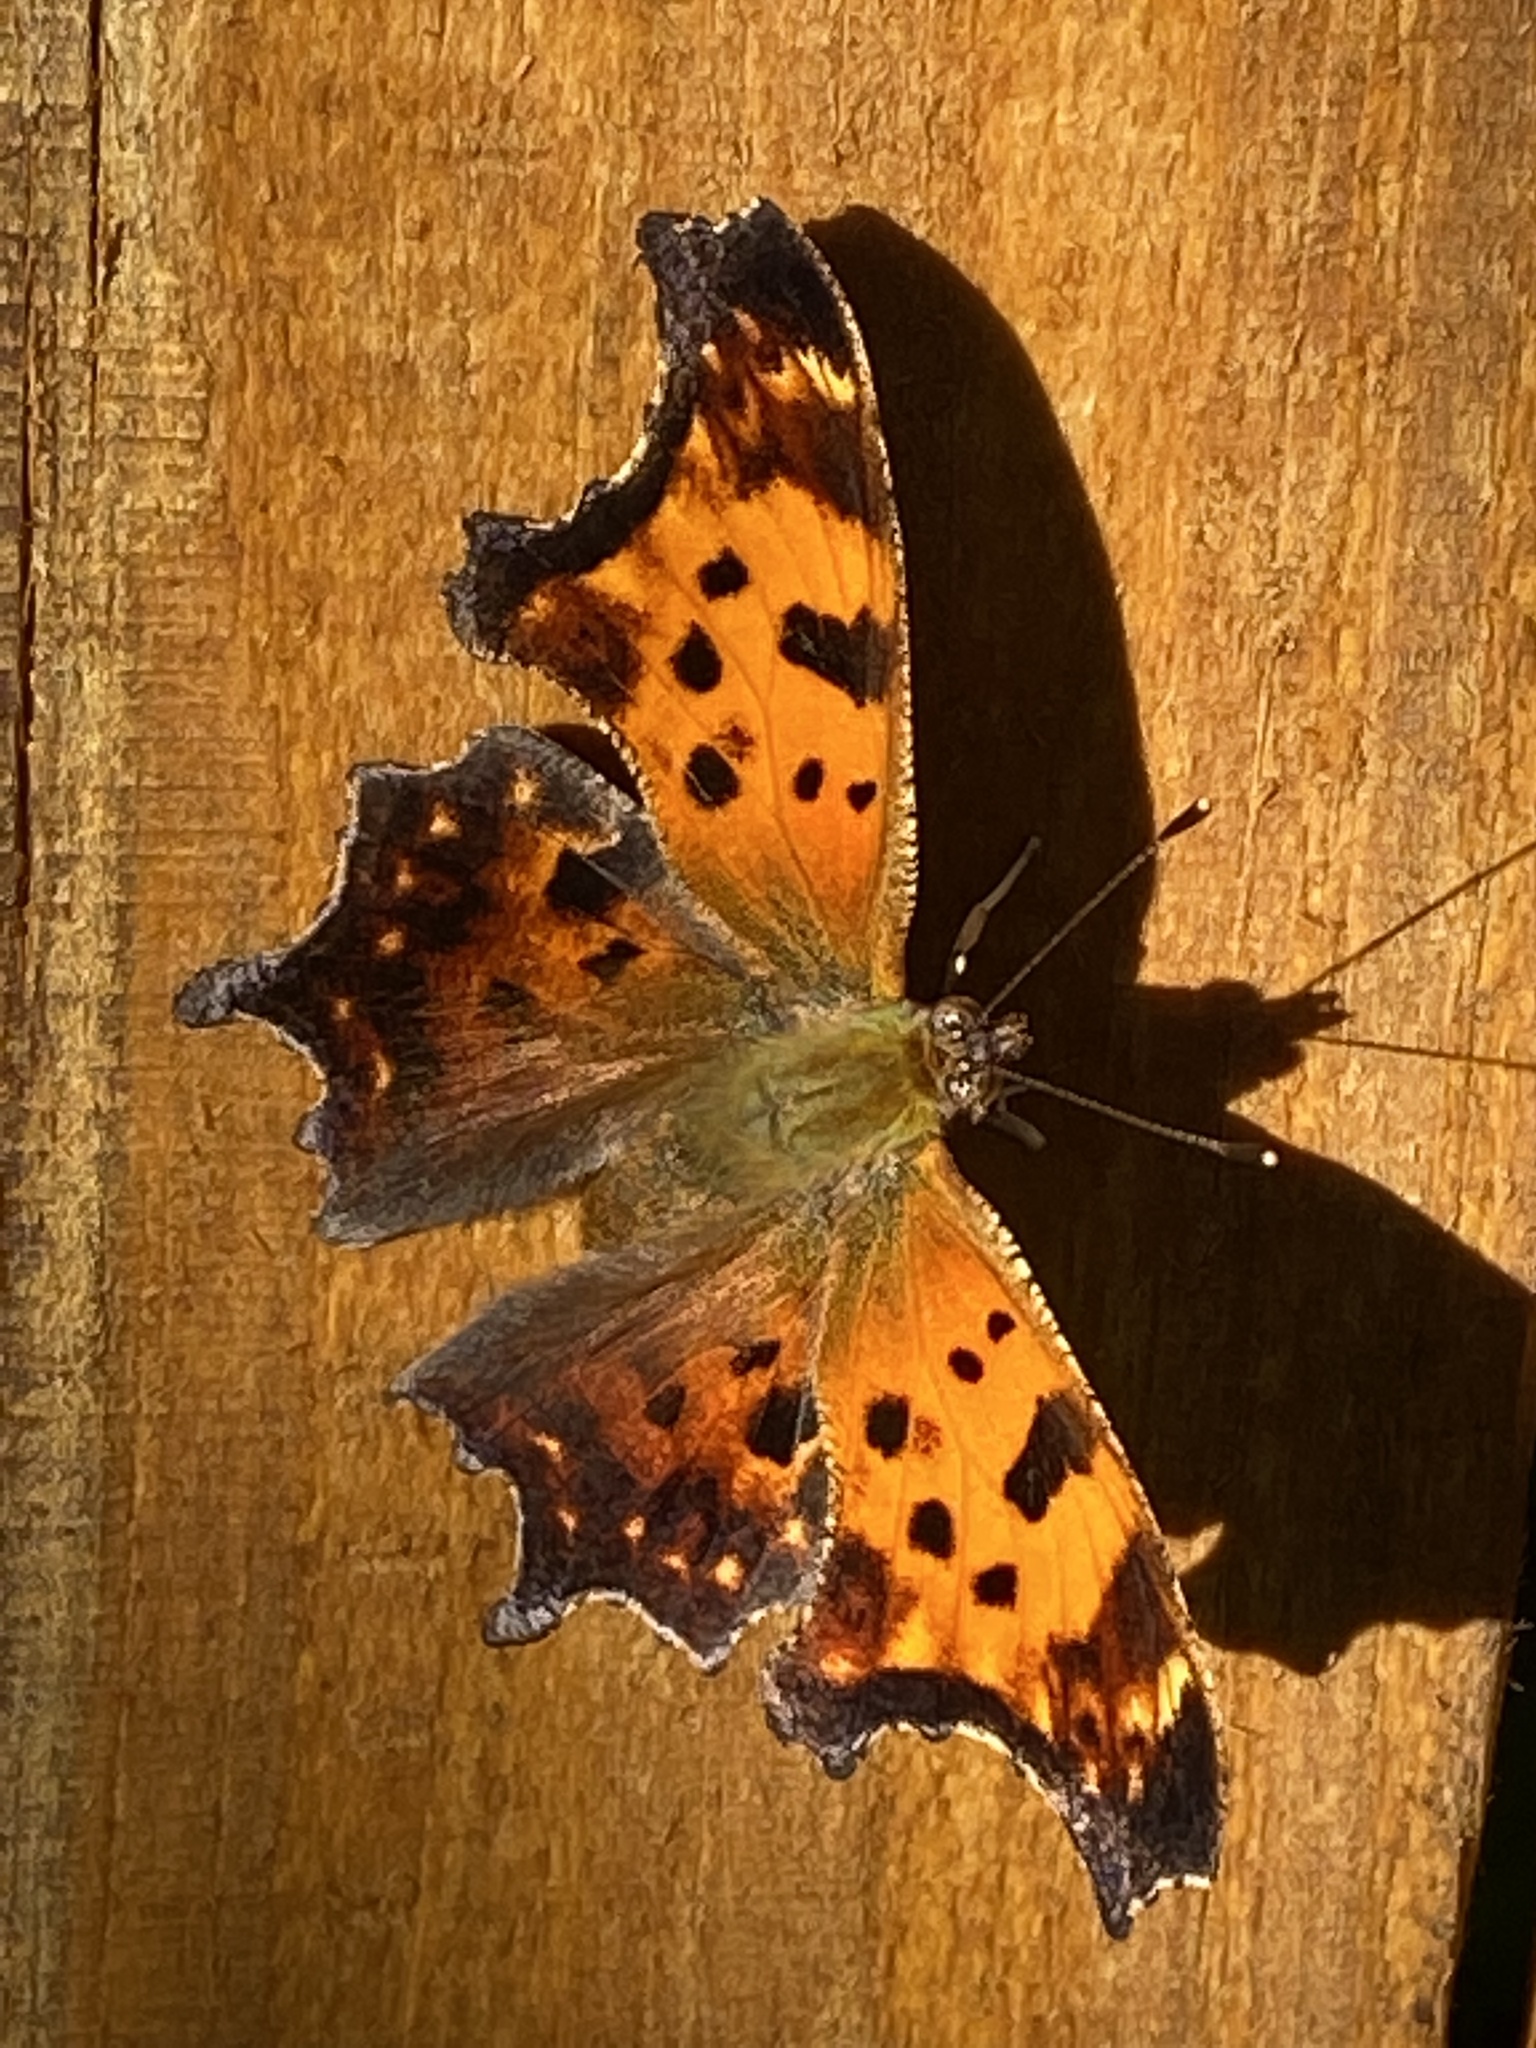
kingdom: Animalia
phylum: Arthropoda
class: Insecta
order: Lepidoptera
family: Nymphalidae
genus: Polygonia
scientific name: Polygonia comma
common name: Eastern comma
